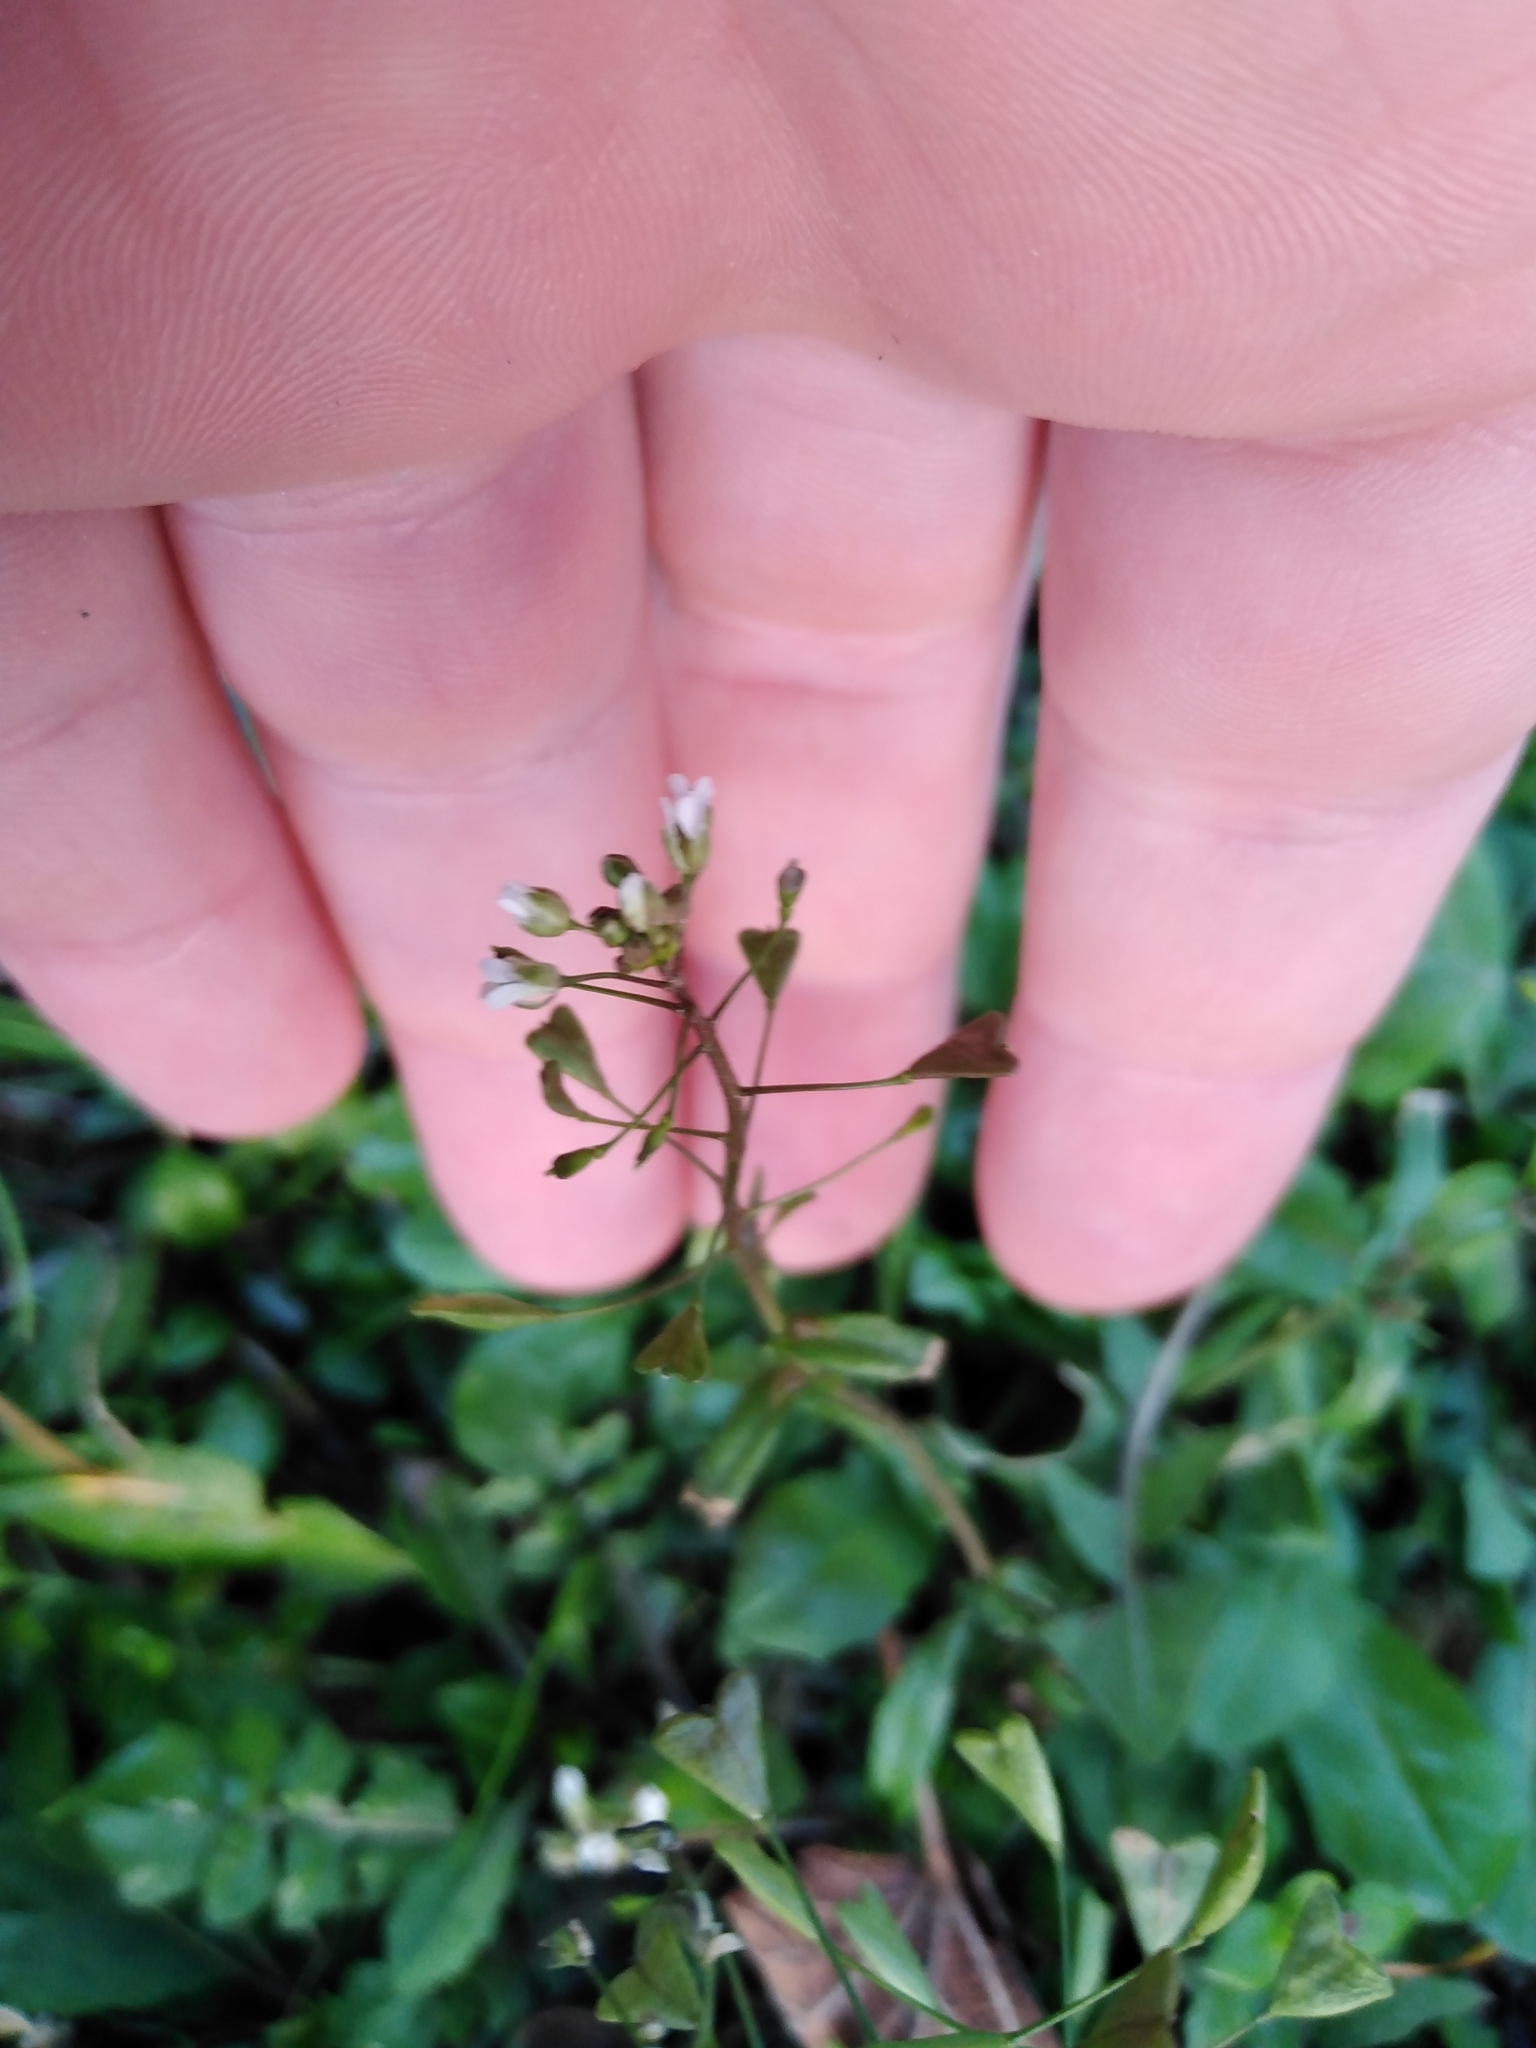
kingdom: Plantae
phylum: Tracheophyta
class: Magnoliopsida
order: Brassicales
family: Brassicaceae
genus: Capsella
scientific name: Capsella bursa-pastoris
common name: Shepherd's purse
